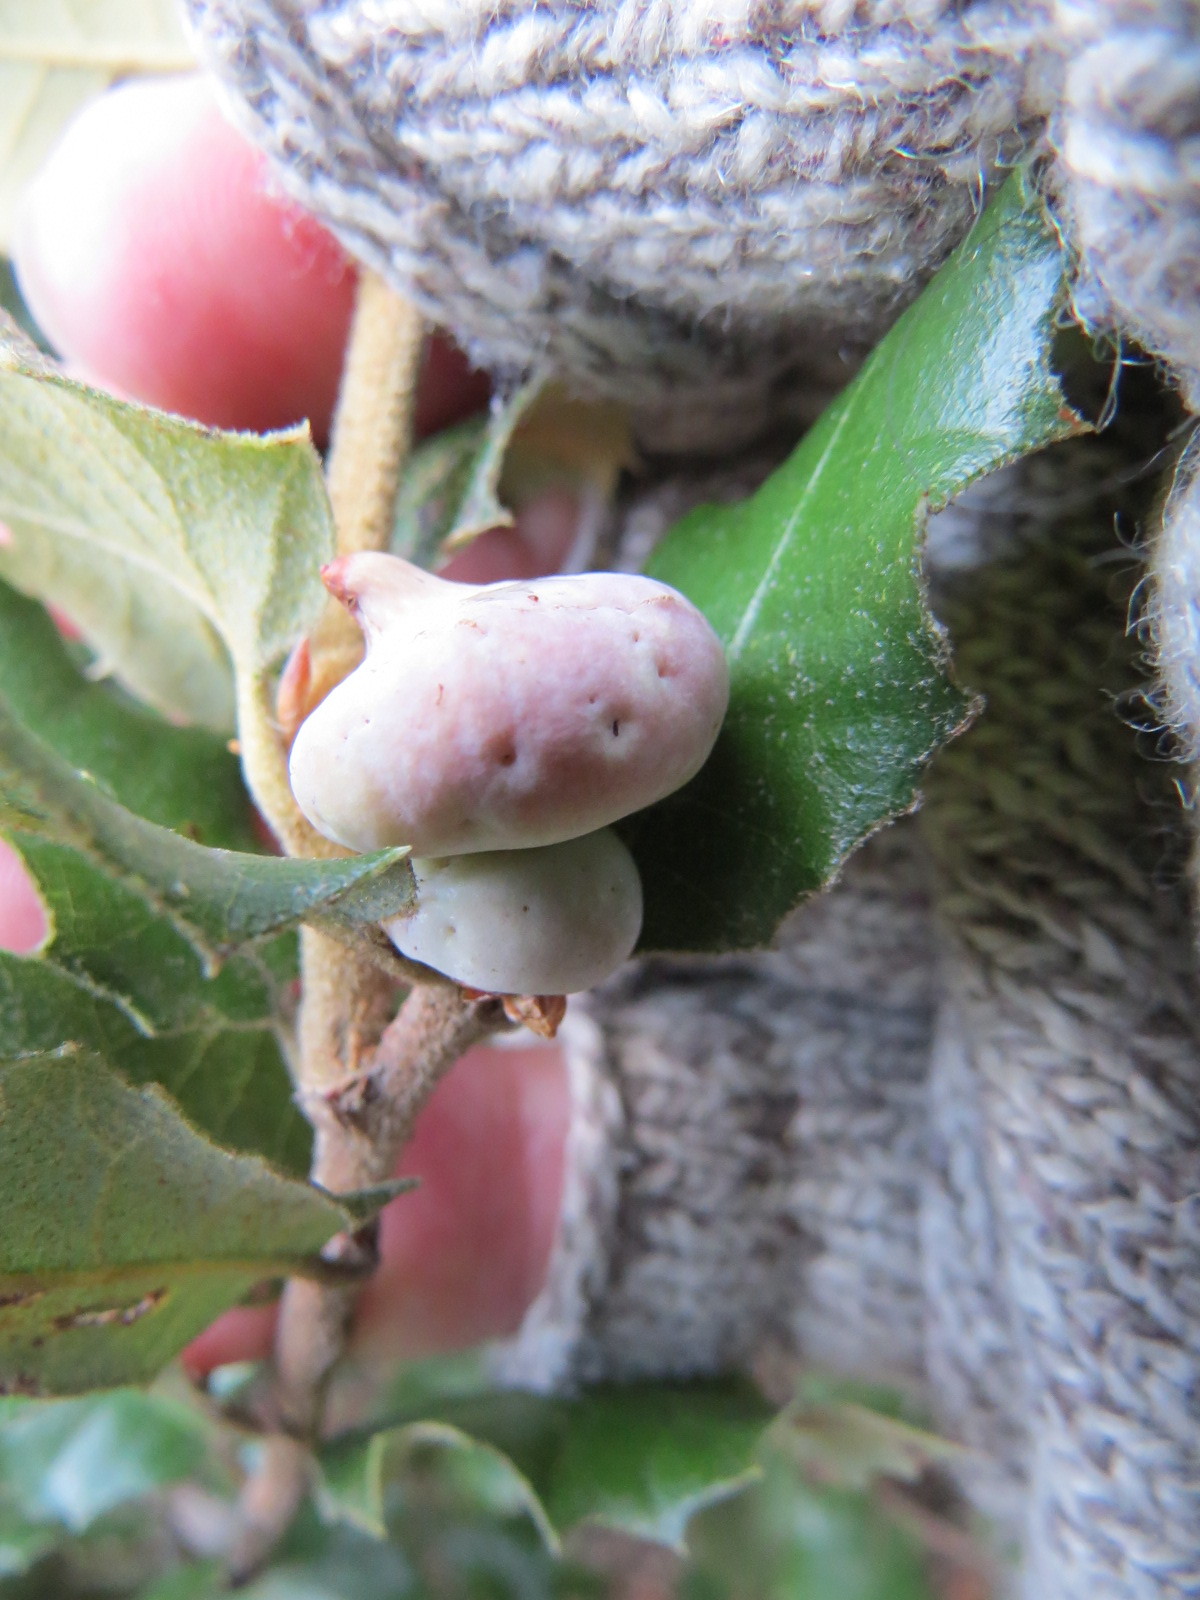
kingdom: Animalia
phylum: Arthropoda
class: Insecta
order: Hymenoptera
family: Cynipidae
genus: Heteroecus
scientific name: Heteroecus
